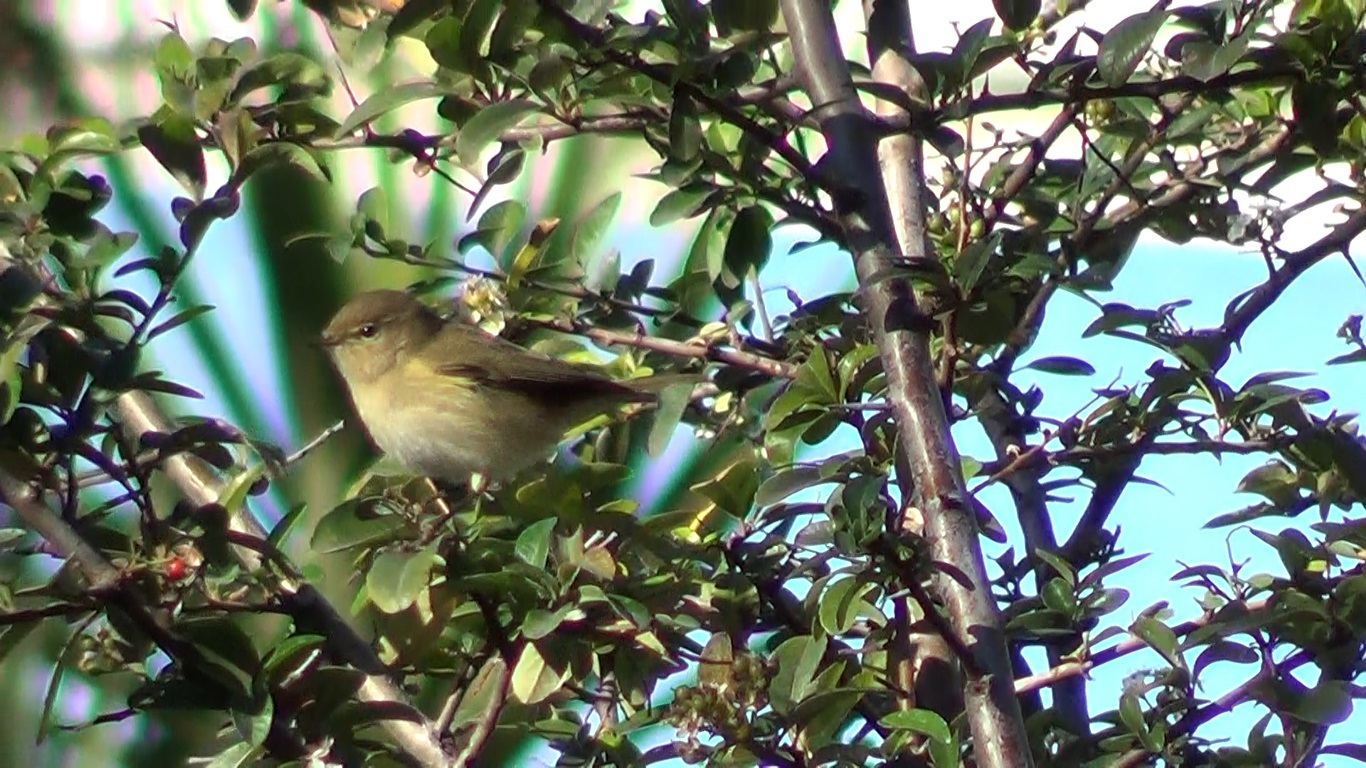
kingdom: Animalia
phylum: Chordata
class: Aves
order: Passeriformes
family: Phylloscopidae
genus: Phylloscopus
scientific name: Phylloscopus collybita
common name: Common chiffchaff
